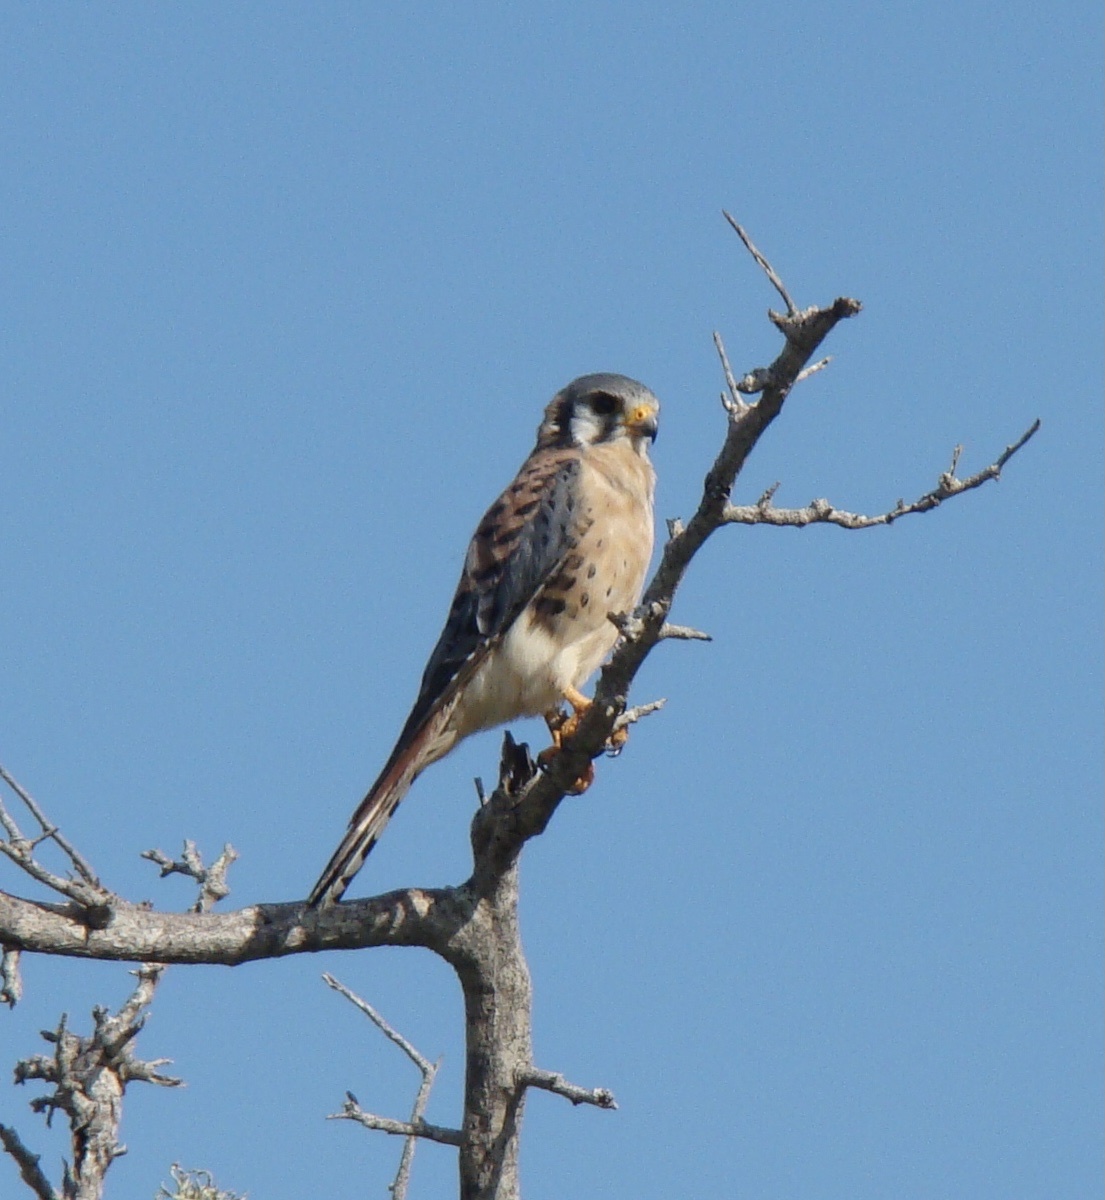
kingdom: Animalia
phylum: Chordata
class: Aves
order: Falconiformes
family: Falconidae
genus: Falco
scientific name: Falco sparverius
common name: American kestrel
